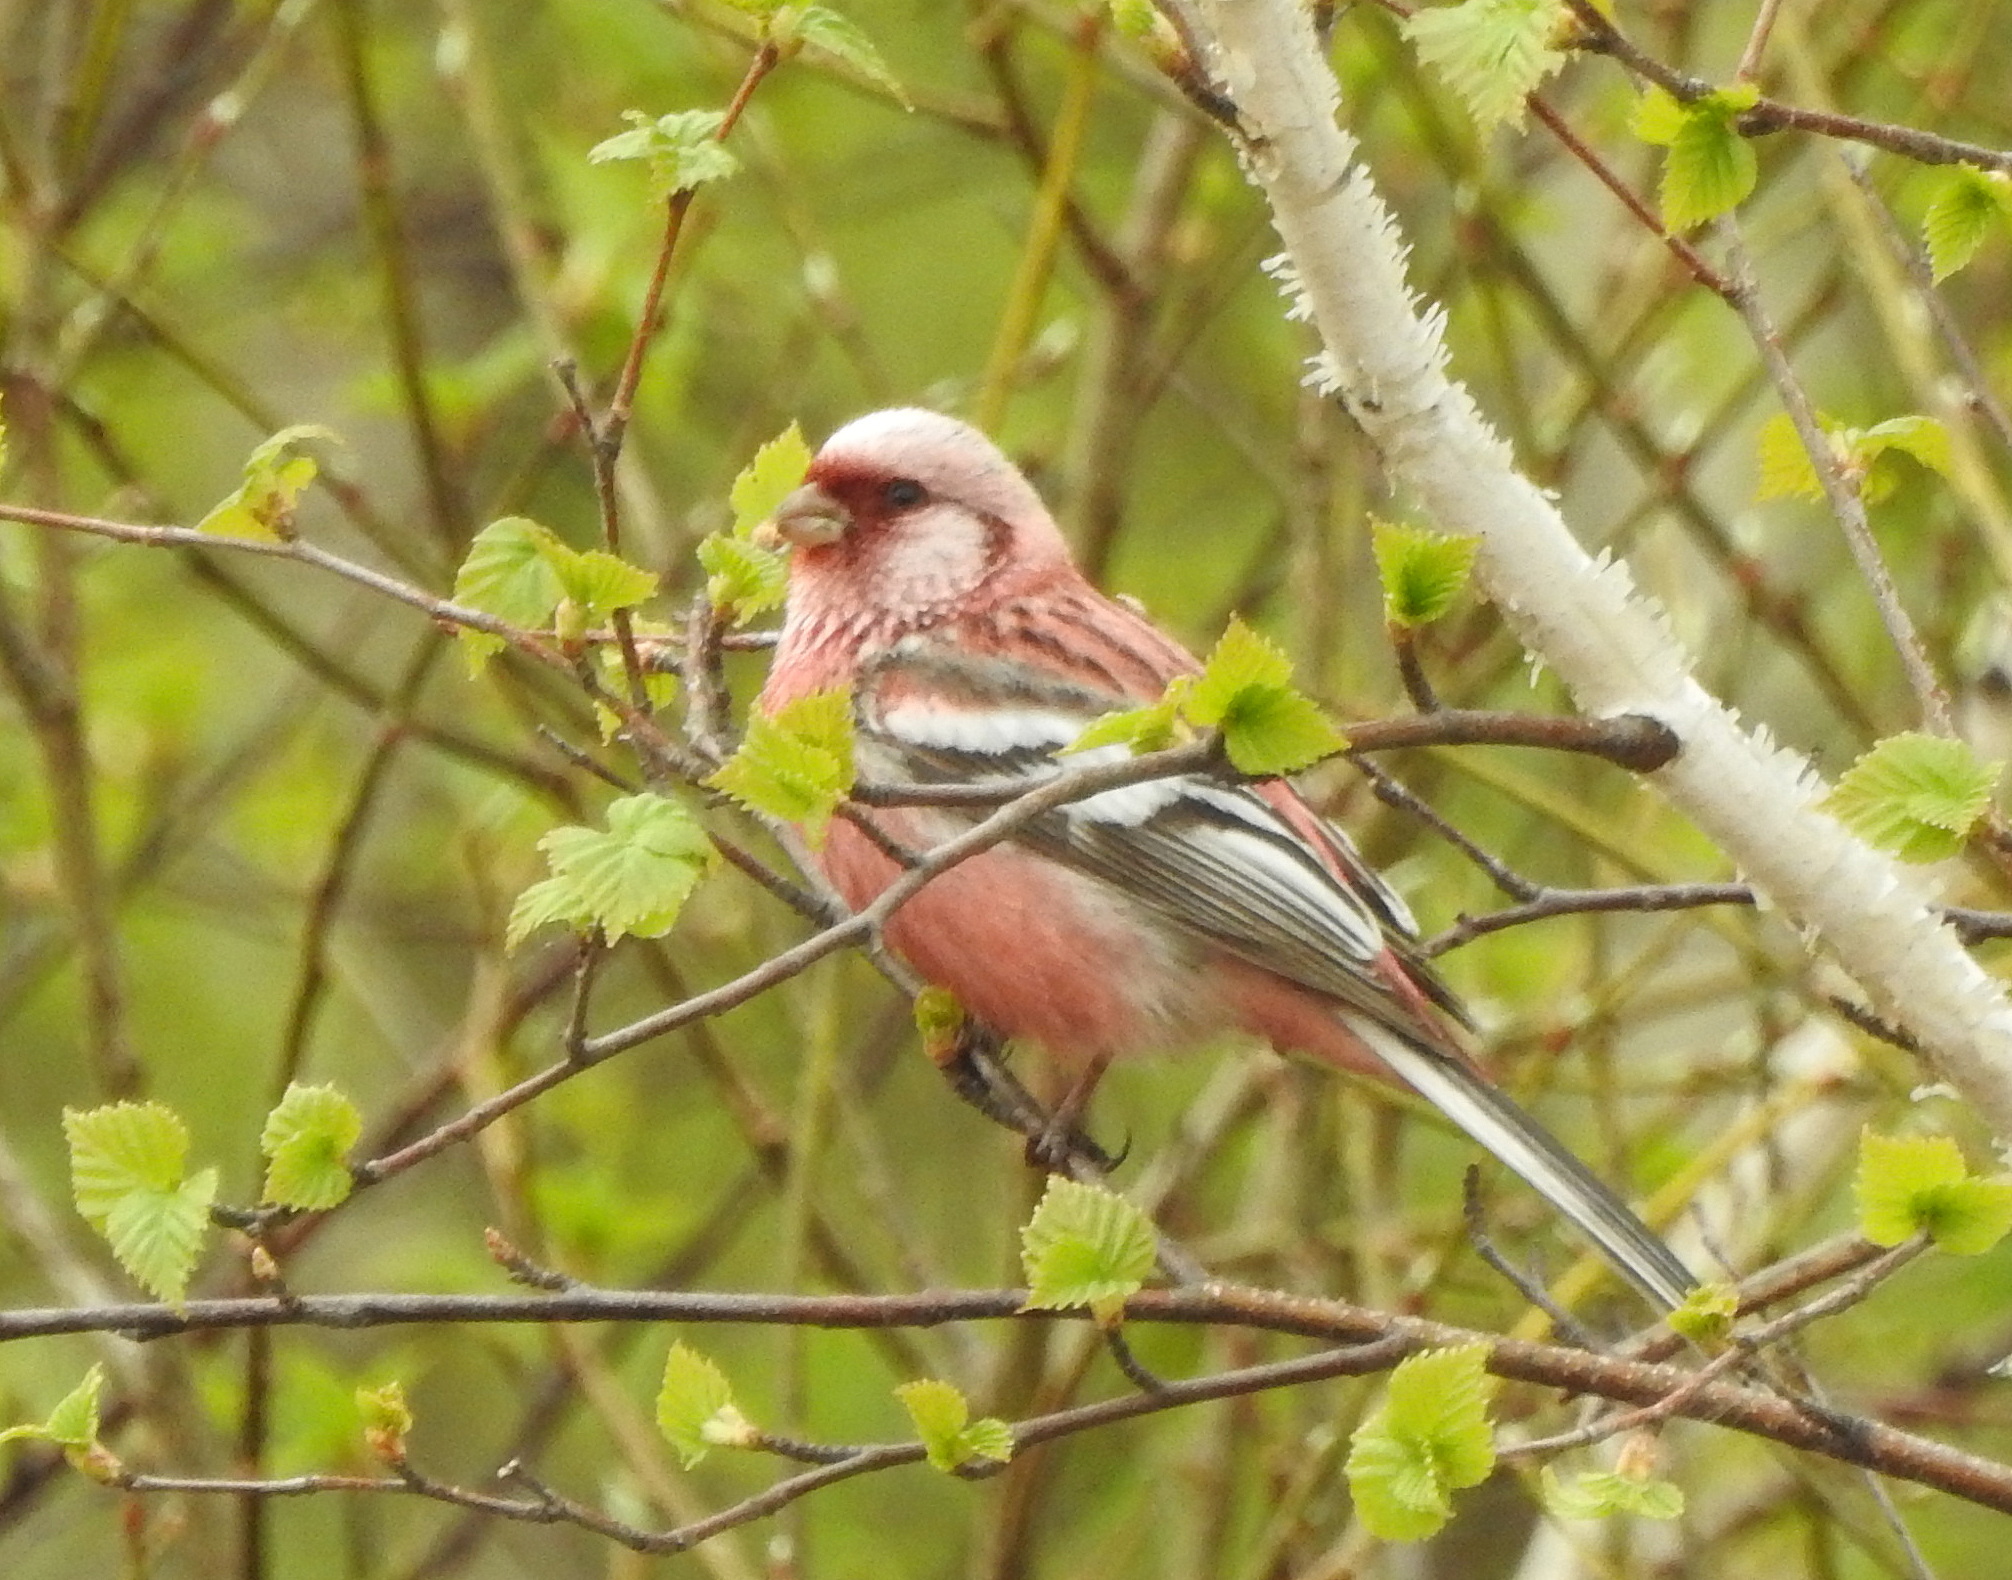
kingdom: Animalia
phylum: Chordata
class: Aves
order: Passeriformes
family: Fringillidae
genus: Carpodacus
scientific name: Carpodacus sibiricus
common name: Long-tailed rosefinch
